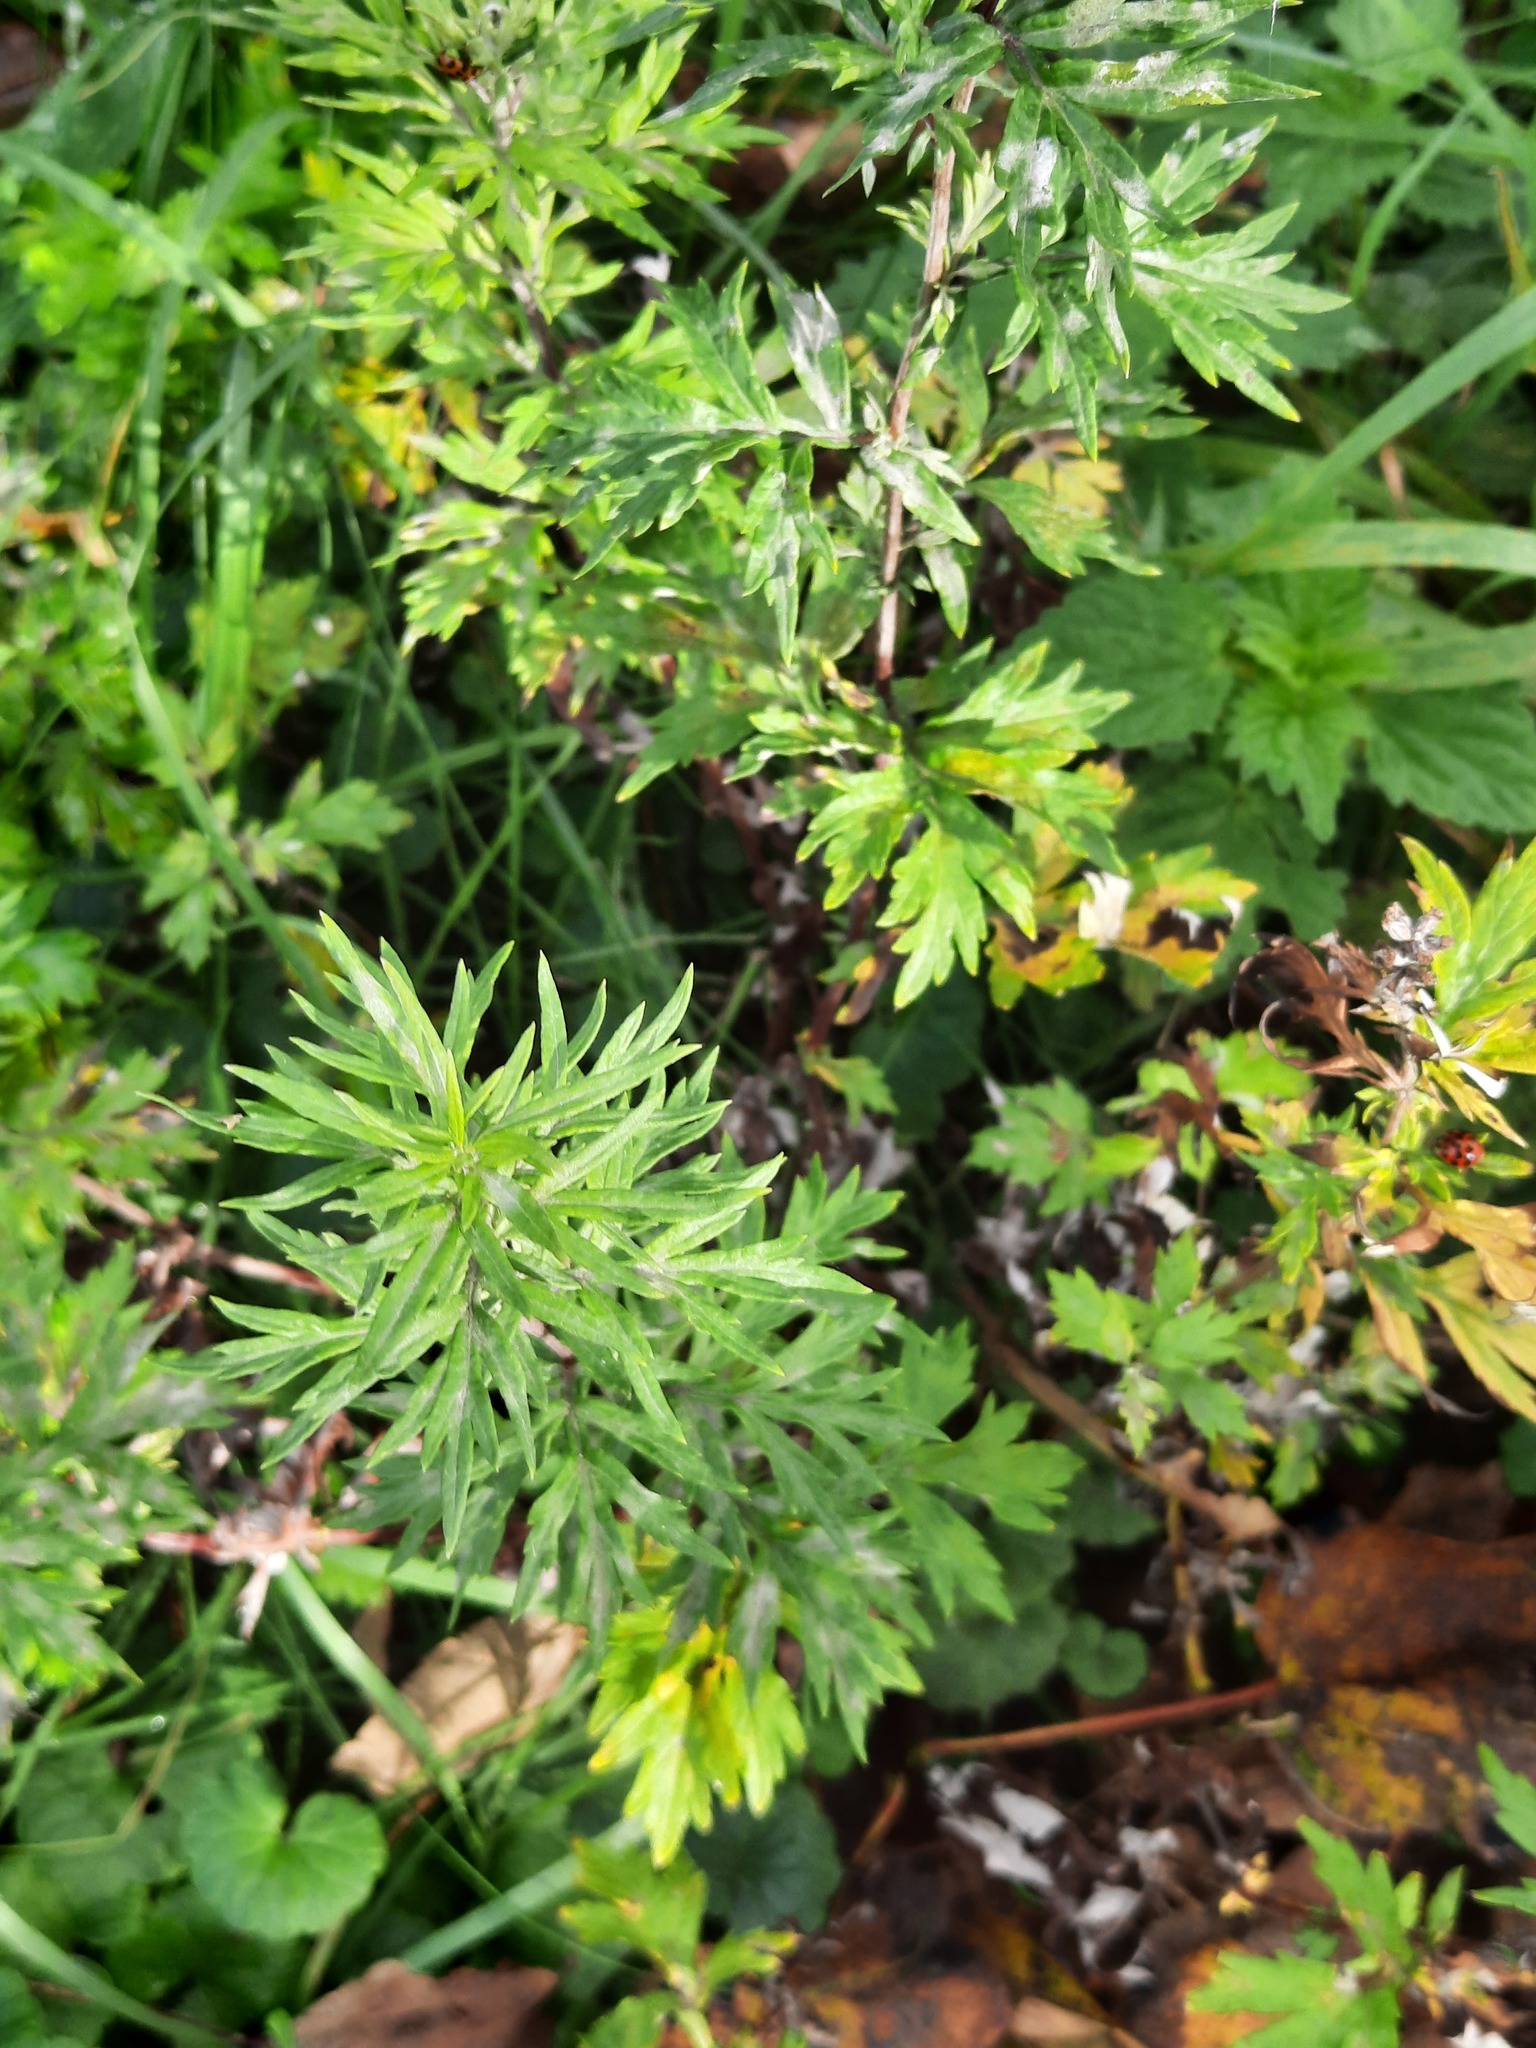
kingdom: Plantae
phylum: Tracheophyta
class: Magnoliopsida
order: Asterales
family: Asteraceae
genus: Artemisia
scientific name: Artemisia vulgaris
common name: Mugwort
